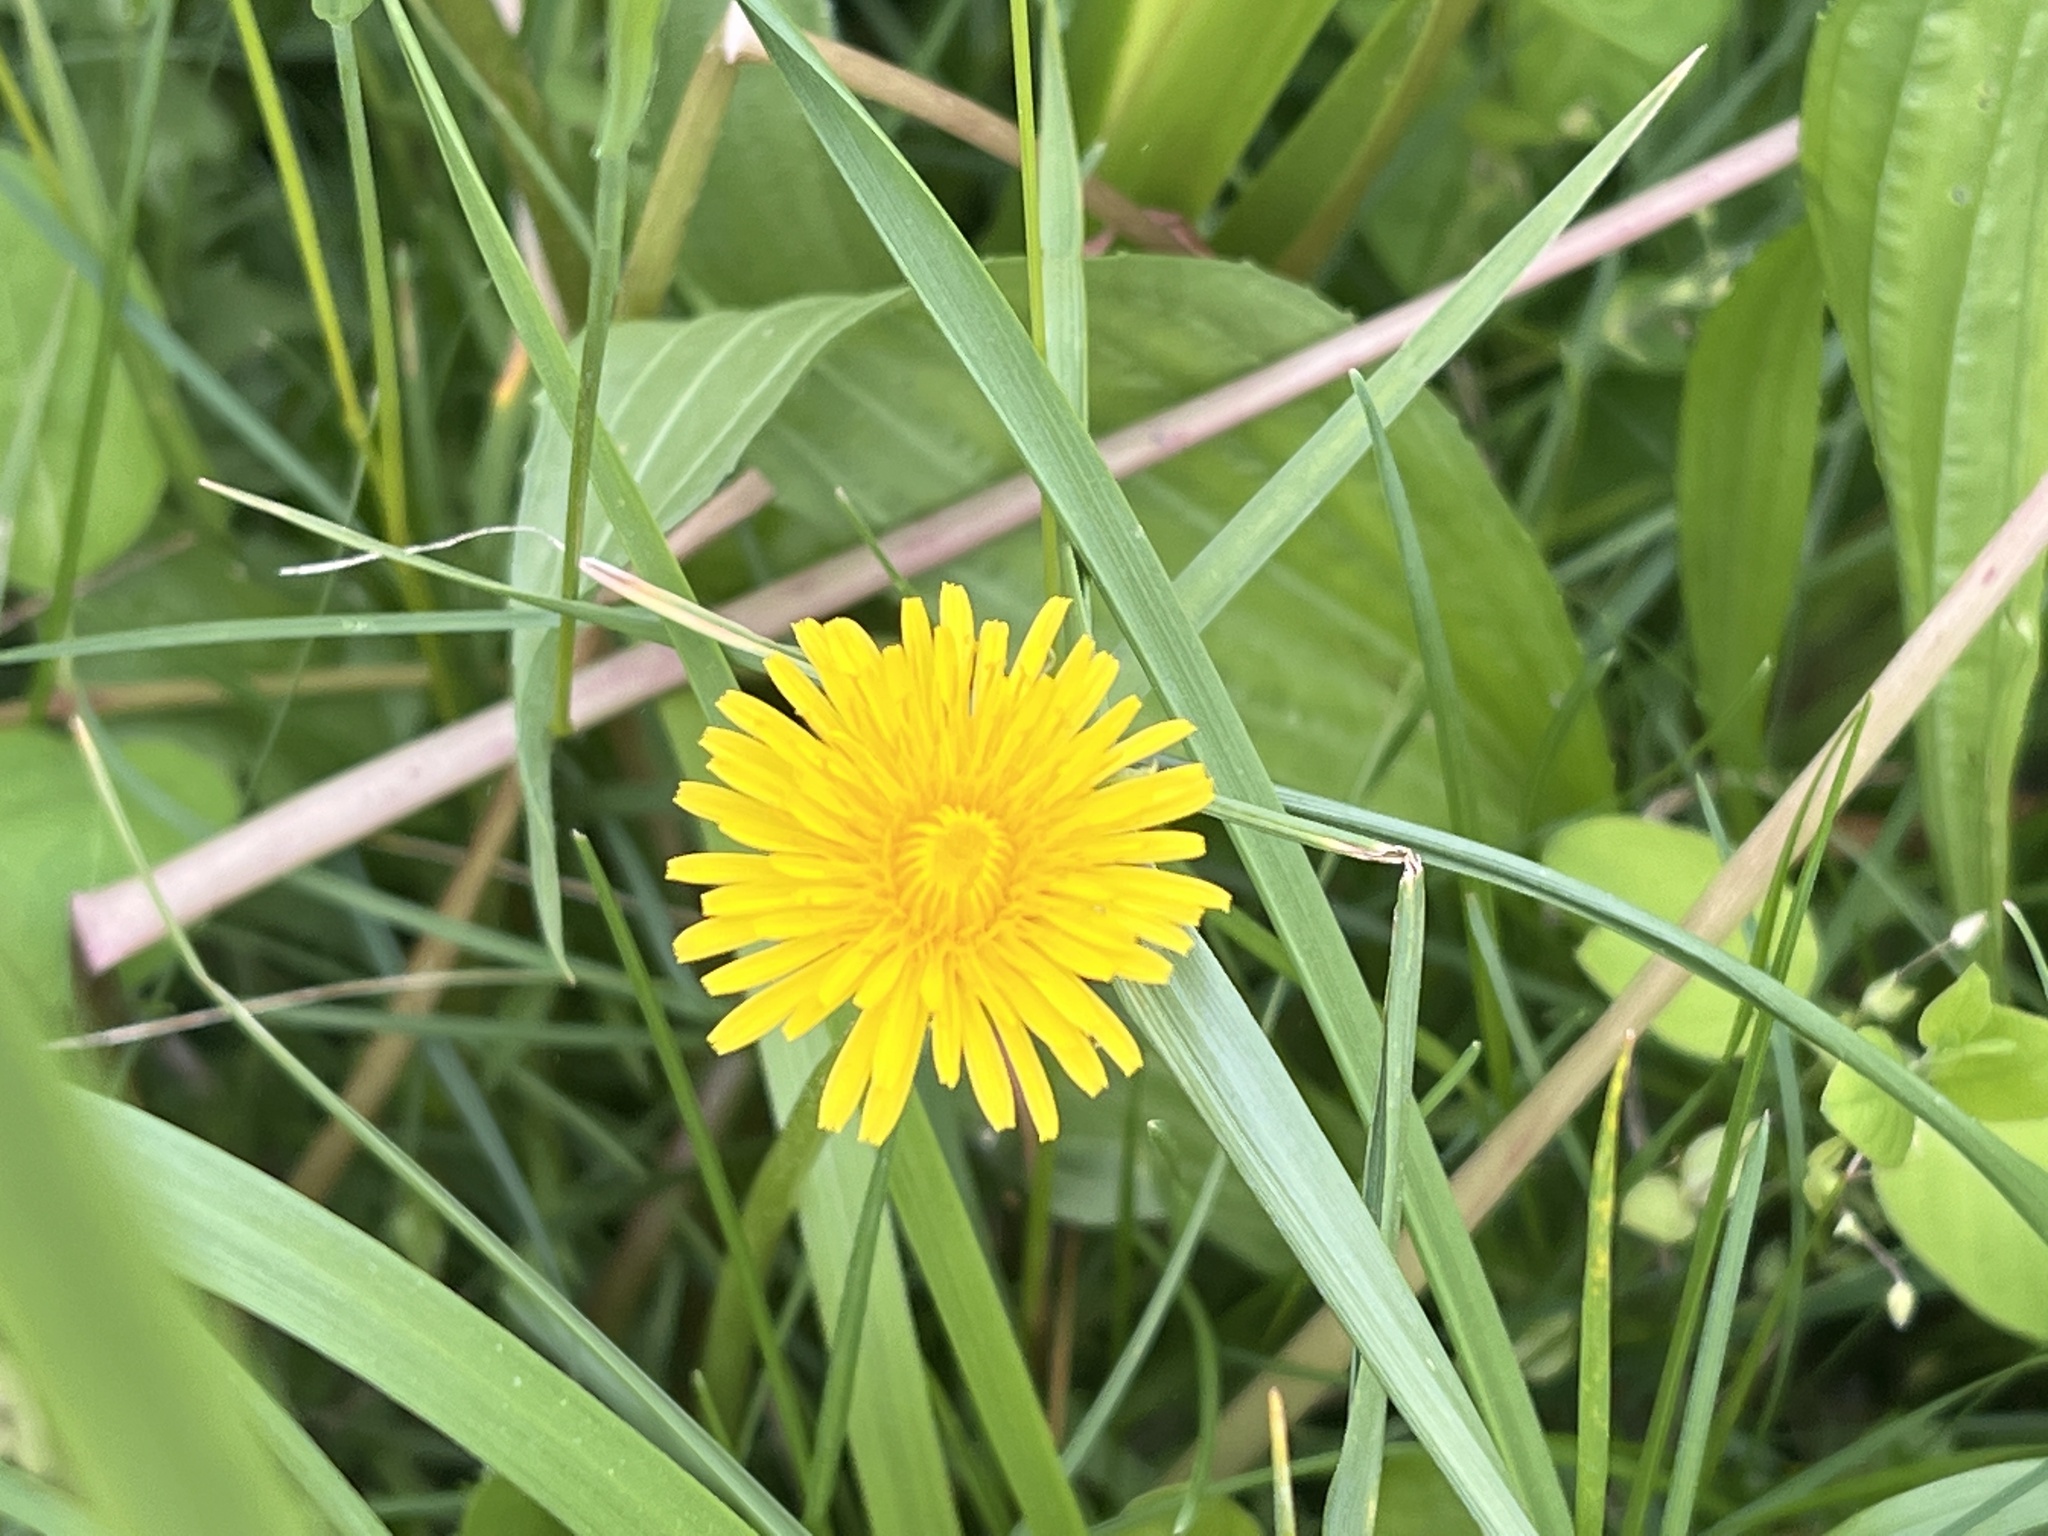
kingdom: Plantae
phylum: Tracheophyta
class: Magnoliopsida
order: Asterales
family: Asteraceae
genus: Taraxacum
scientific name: Taraxacum officinale
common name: Common dandelion
